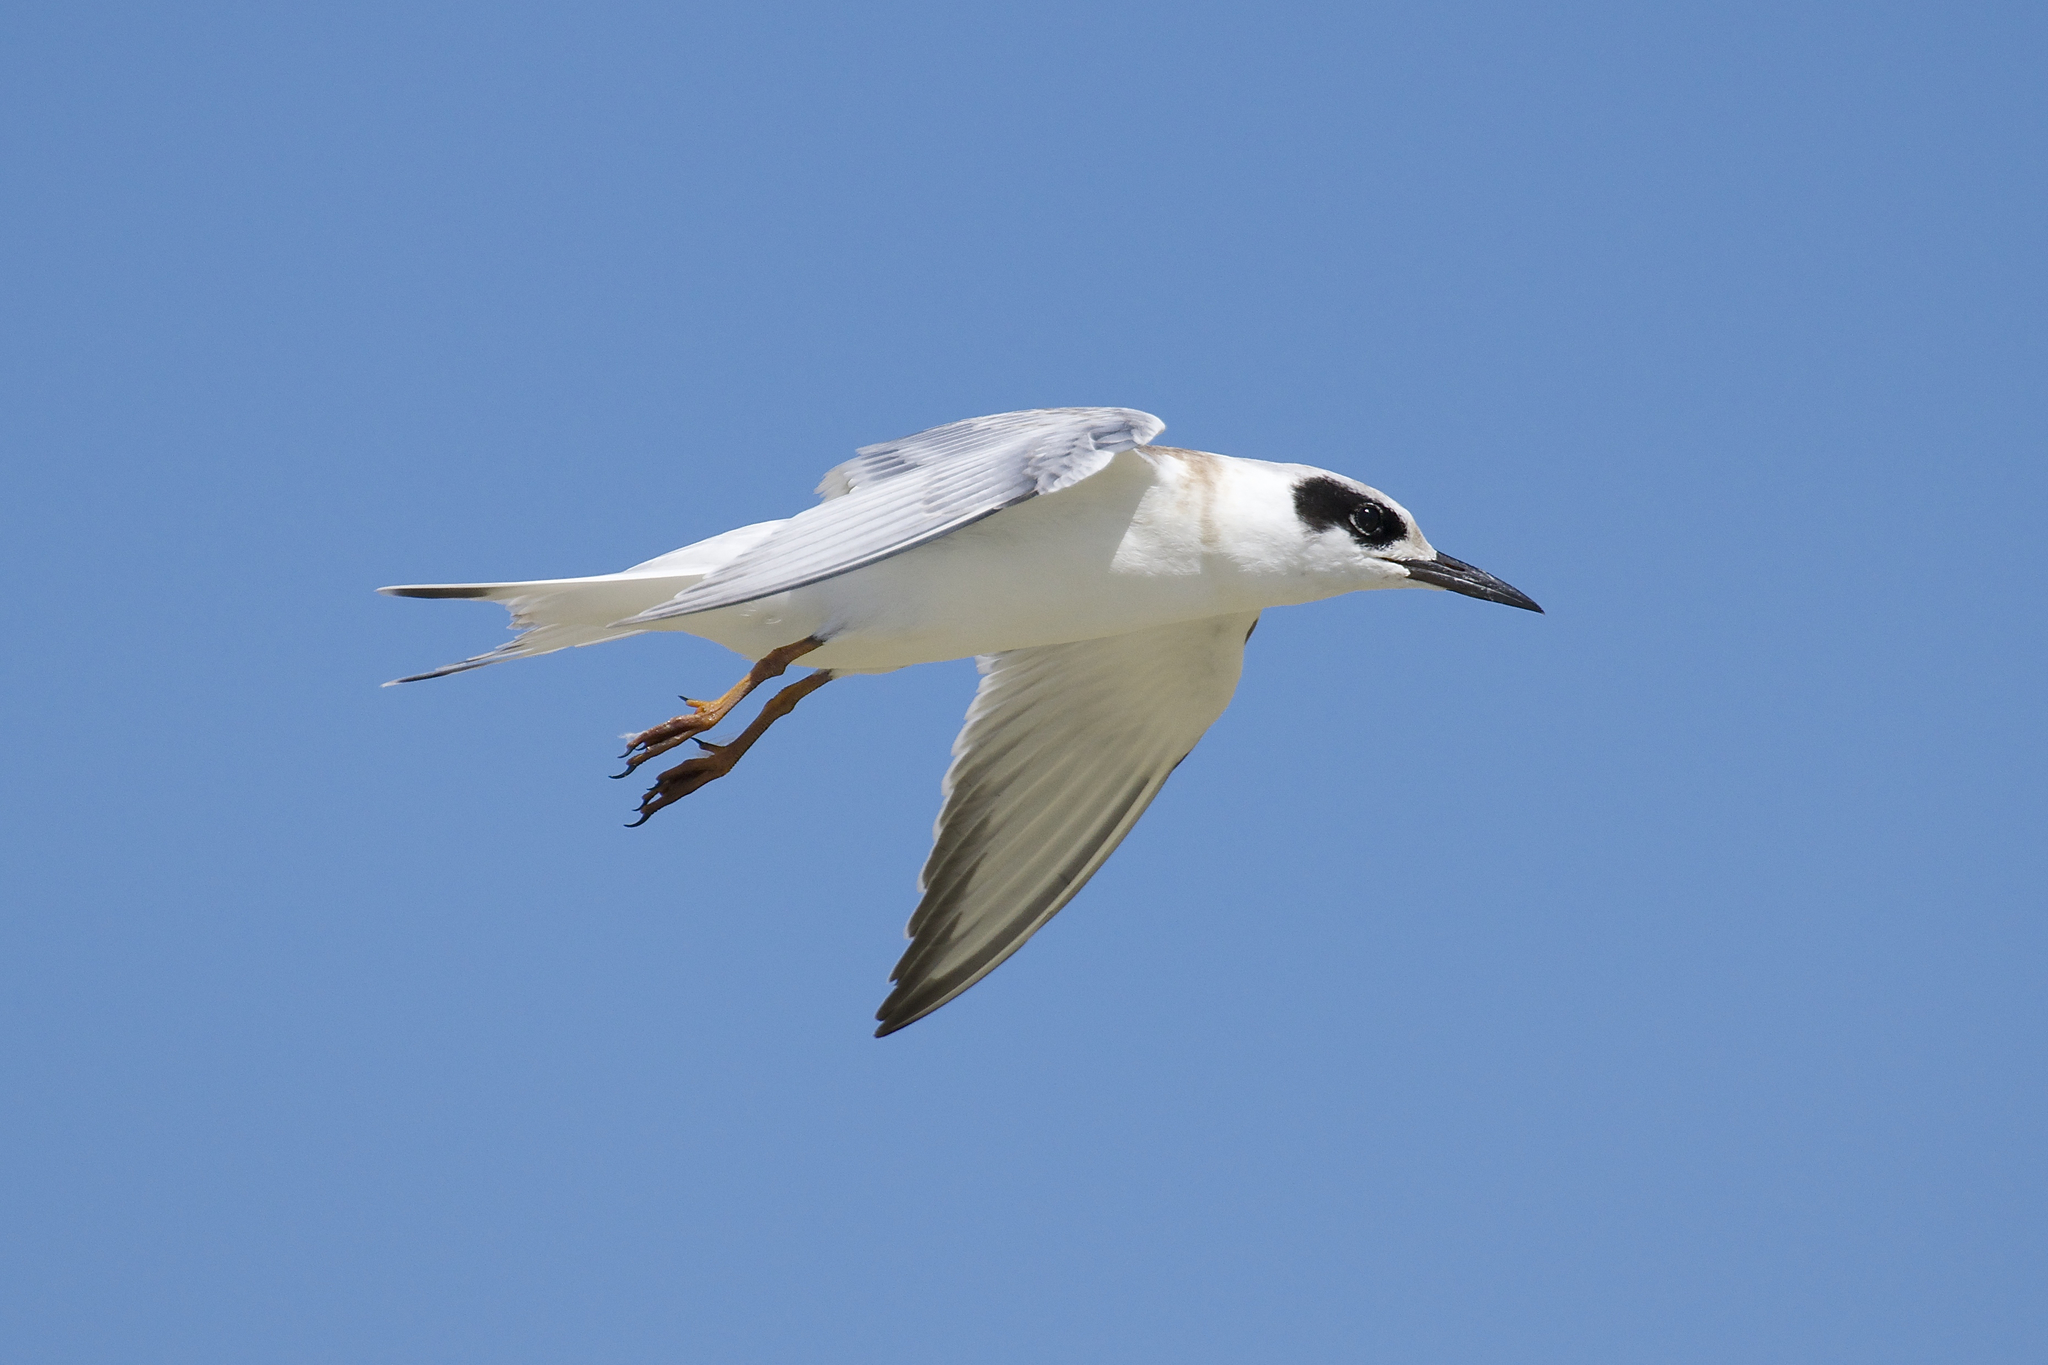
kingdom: Animalia
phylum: Chordata
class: Aves
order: Charadriiformes
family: Laridae
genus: Sterna
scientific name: Sterna forsteri
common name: Forster's tern
